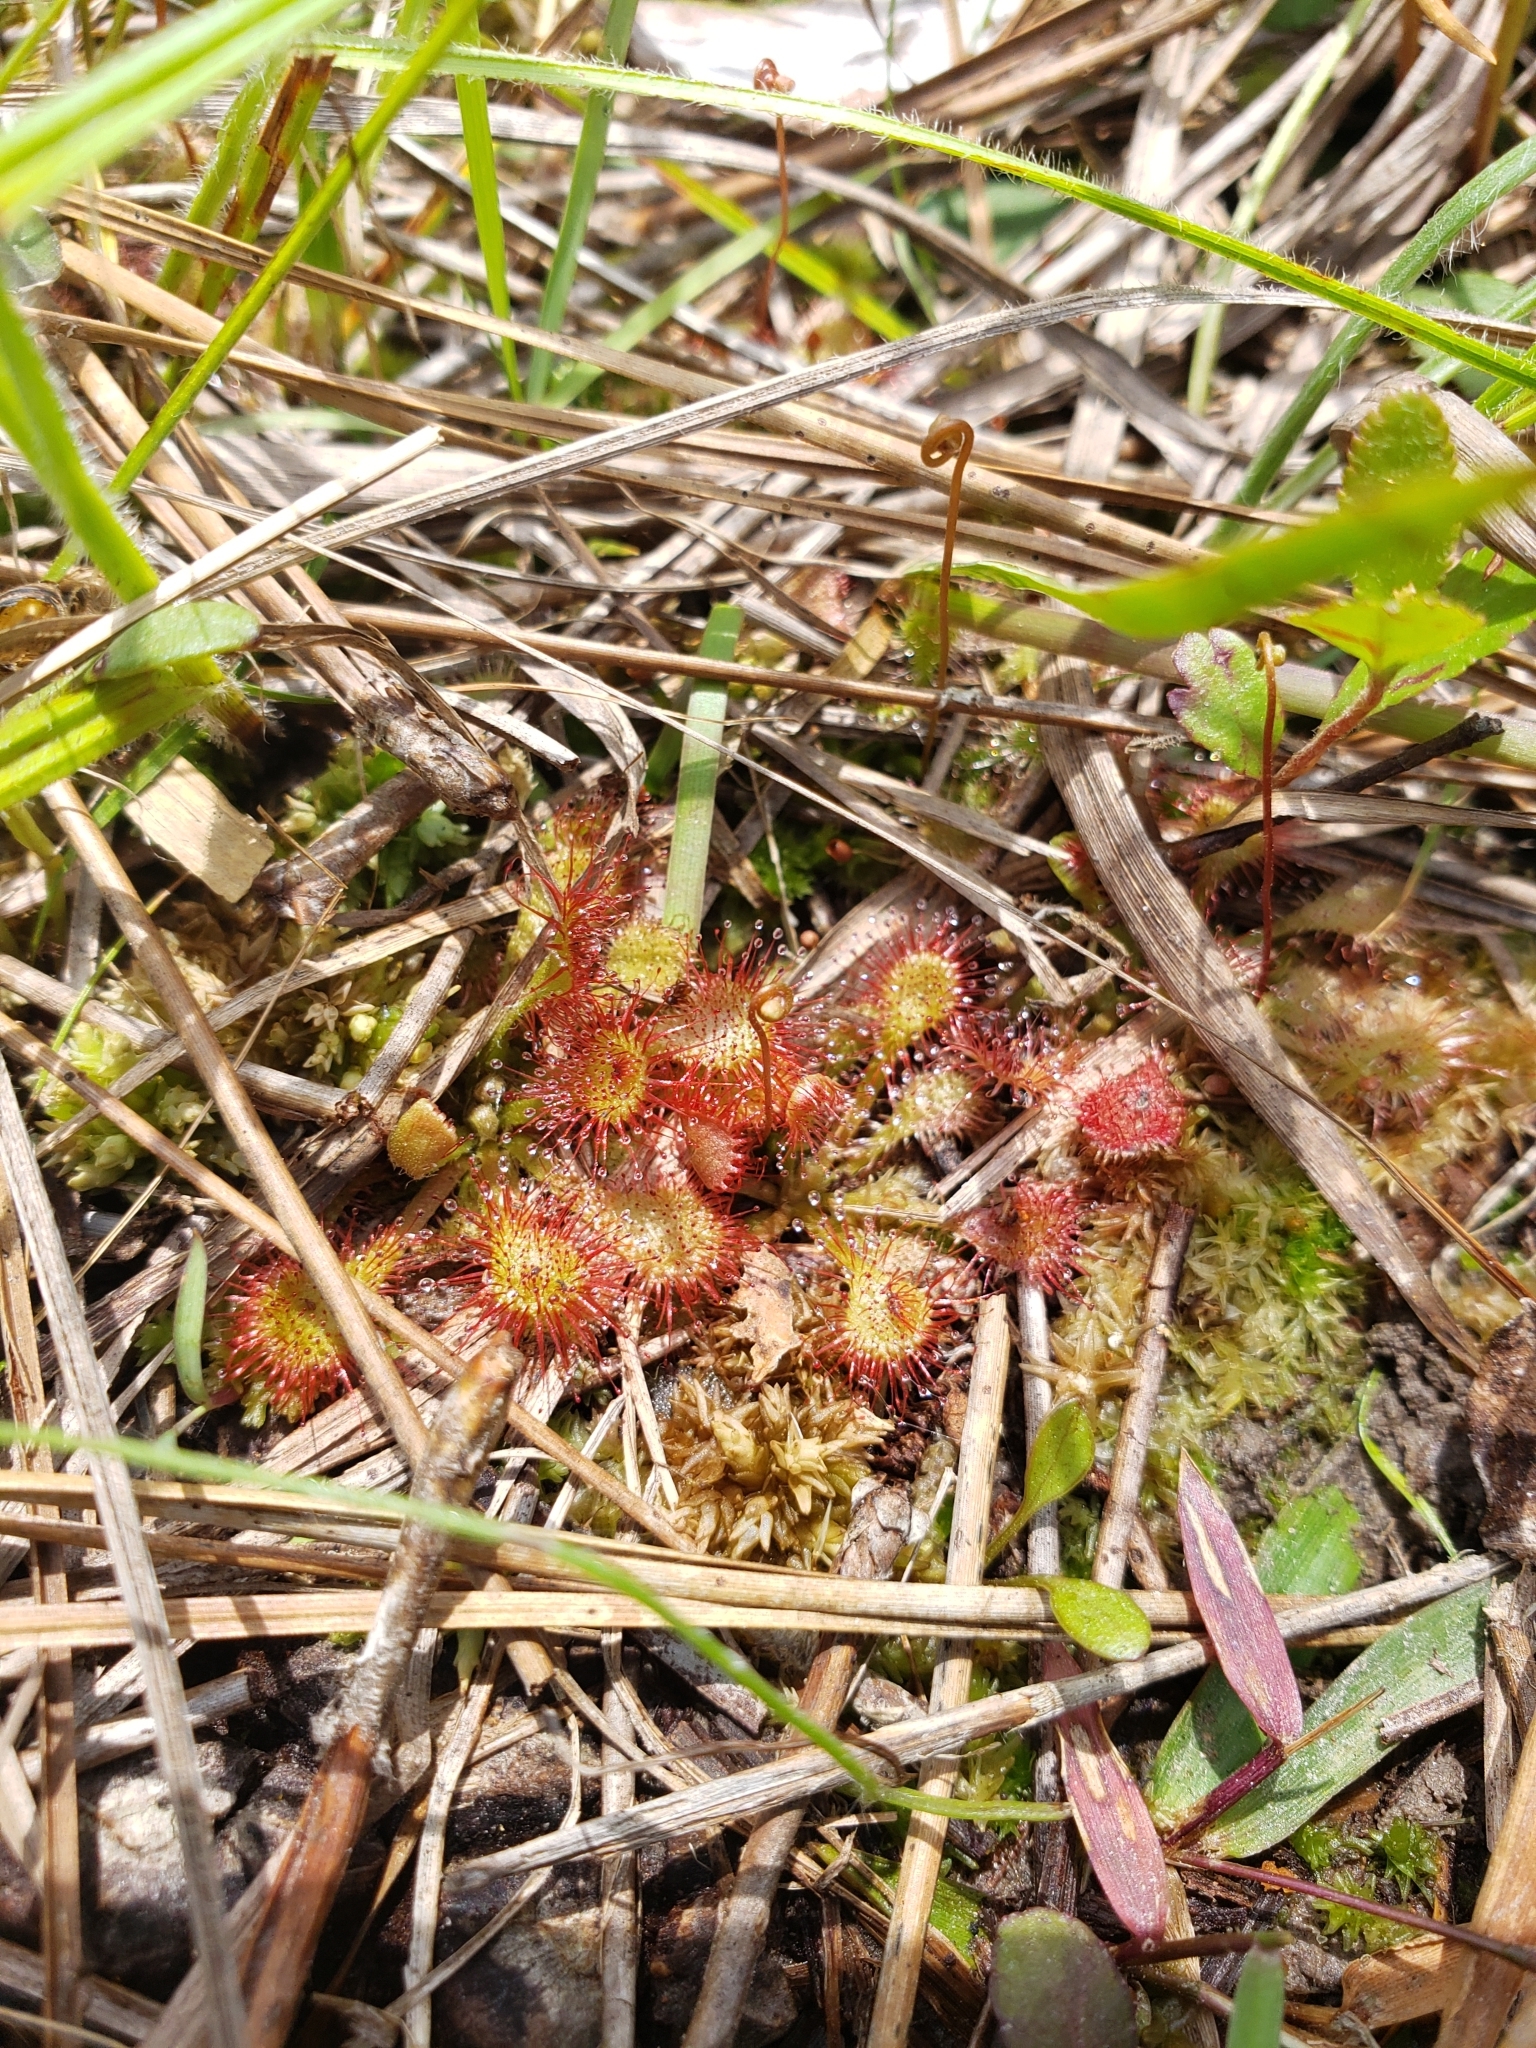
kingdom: Plantae
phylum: Tracheophyta
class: Magnoliopsida
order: Caryophyllales
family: Droseraceae
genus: Drosera
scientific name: Drosera capillaris
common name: Pink sundew
